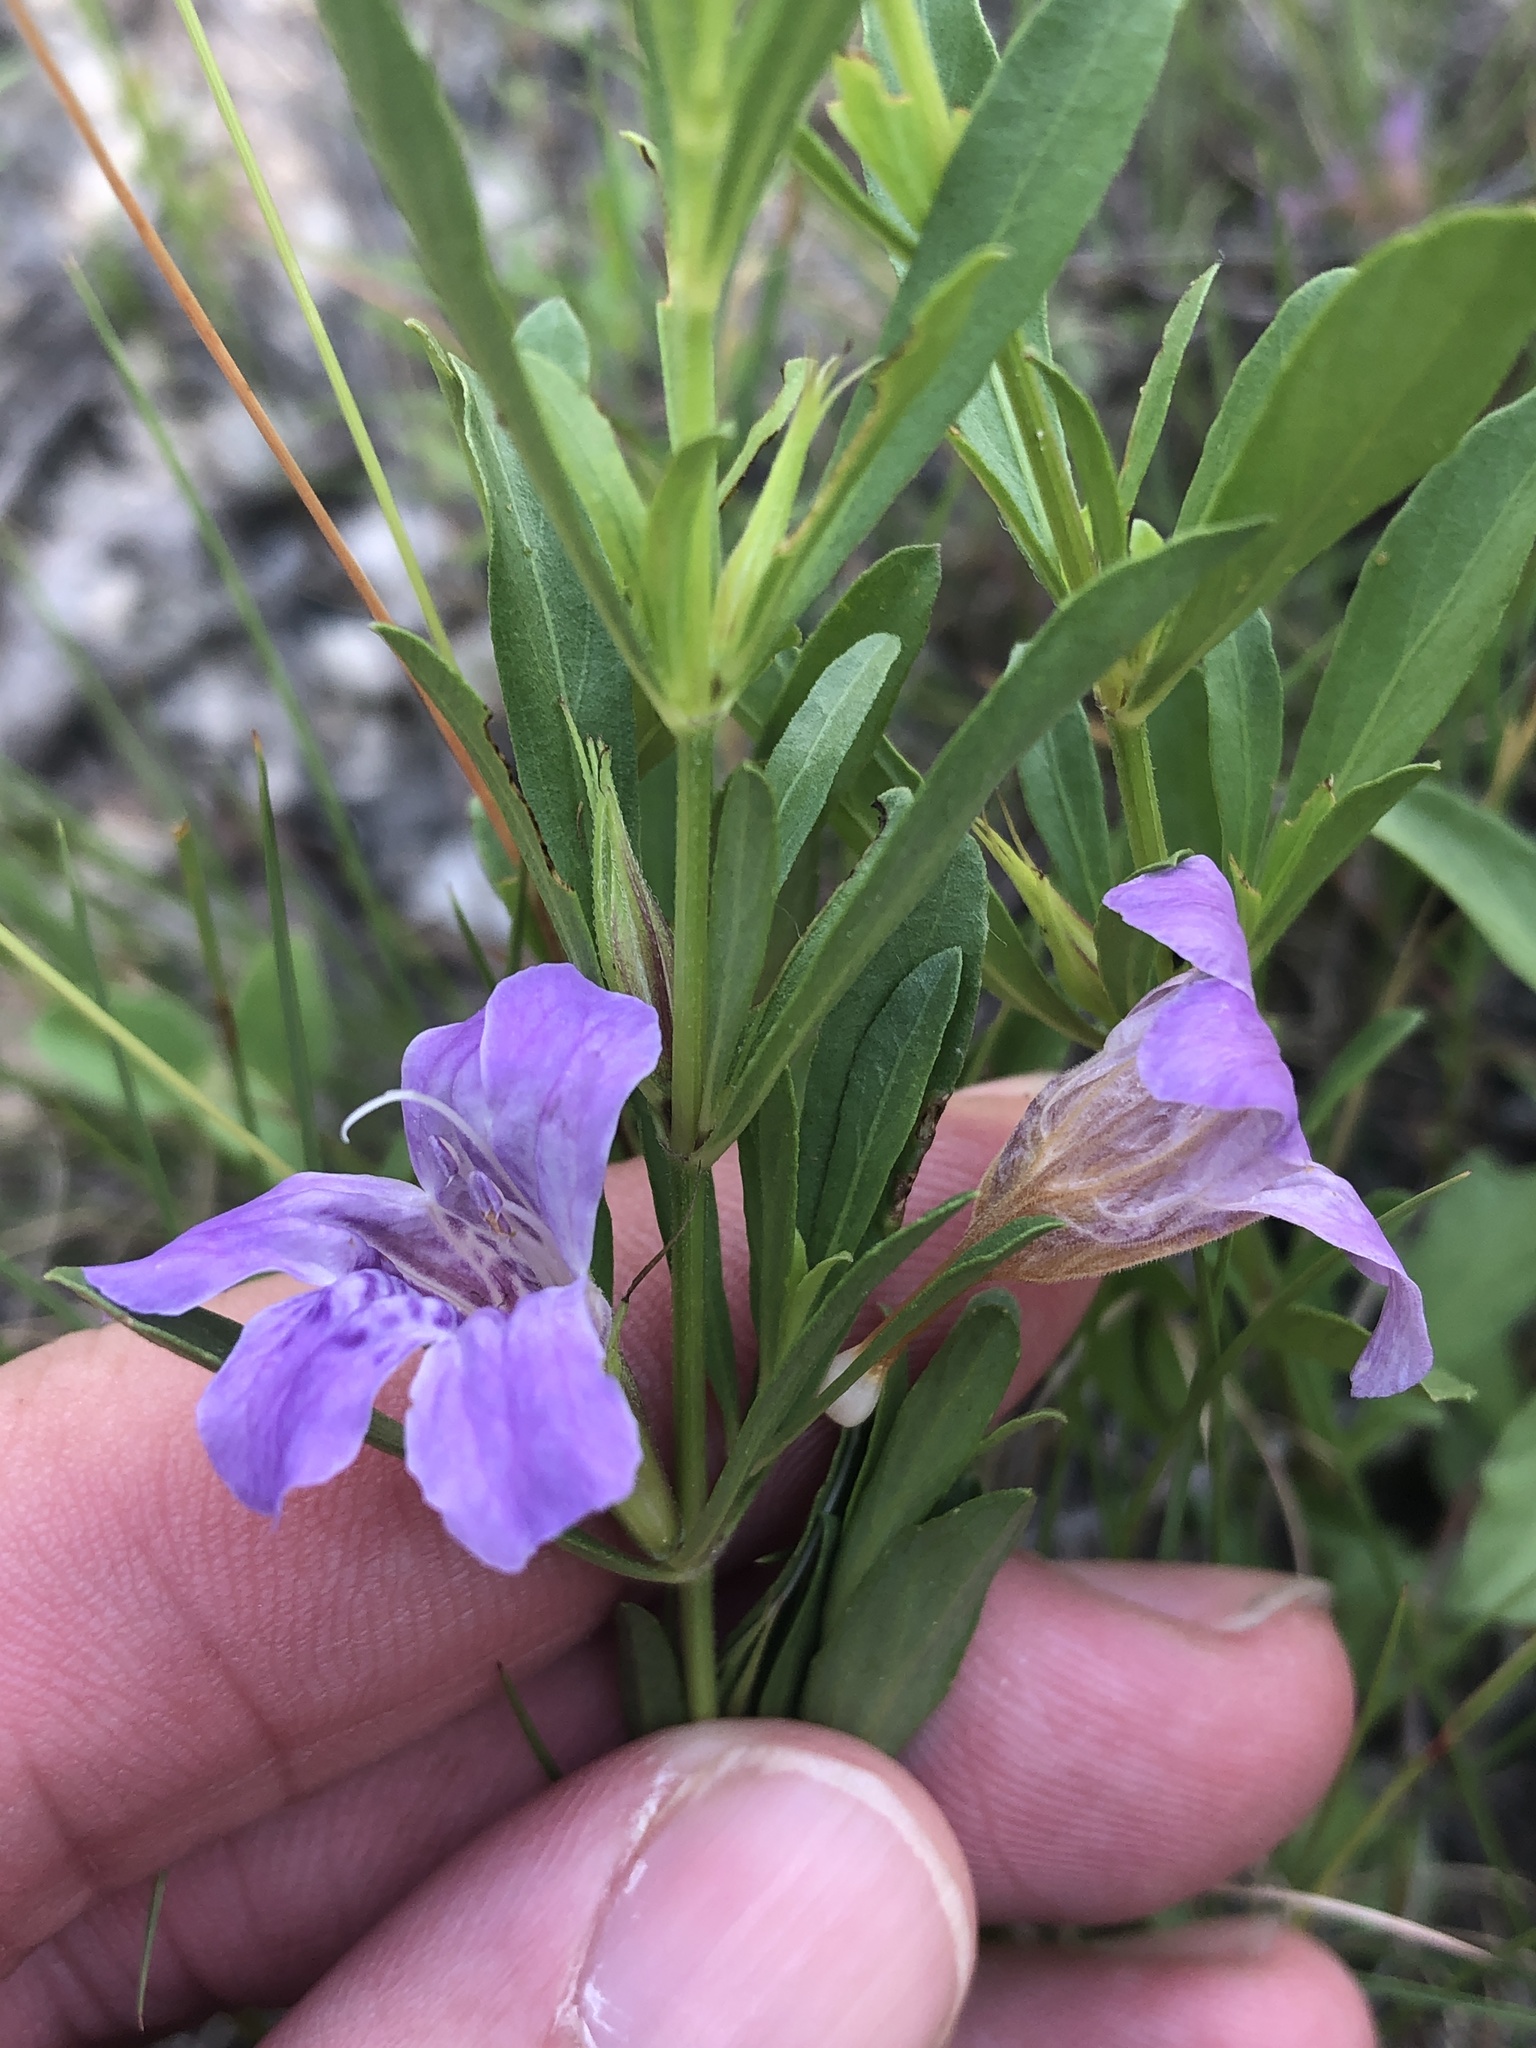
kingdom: Plantae
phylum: Tracheophyta
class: Magnoliopsida
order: Lamiales
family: Acanthaceae
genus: Dyschoriste
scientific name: Dyschoriste linearis
